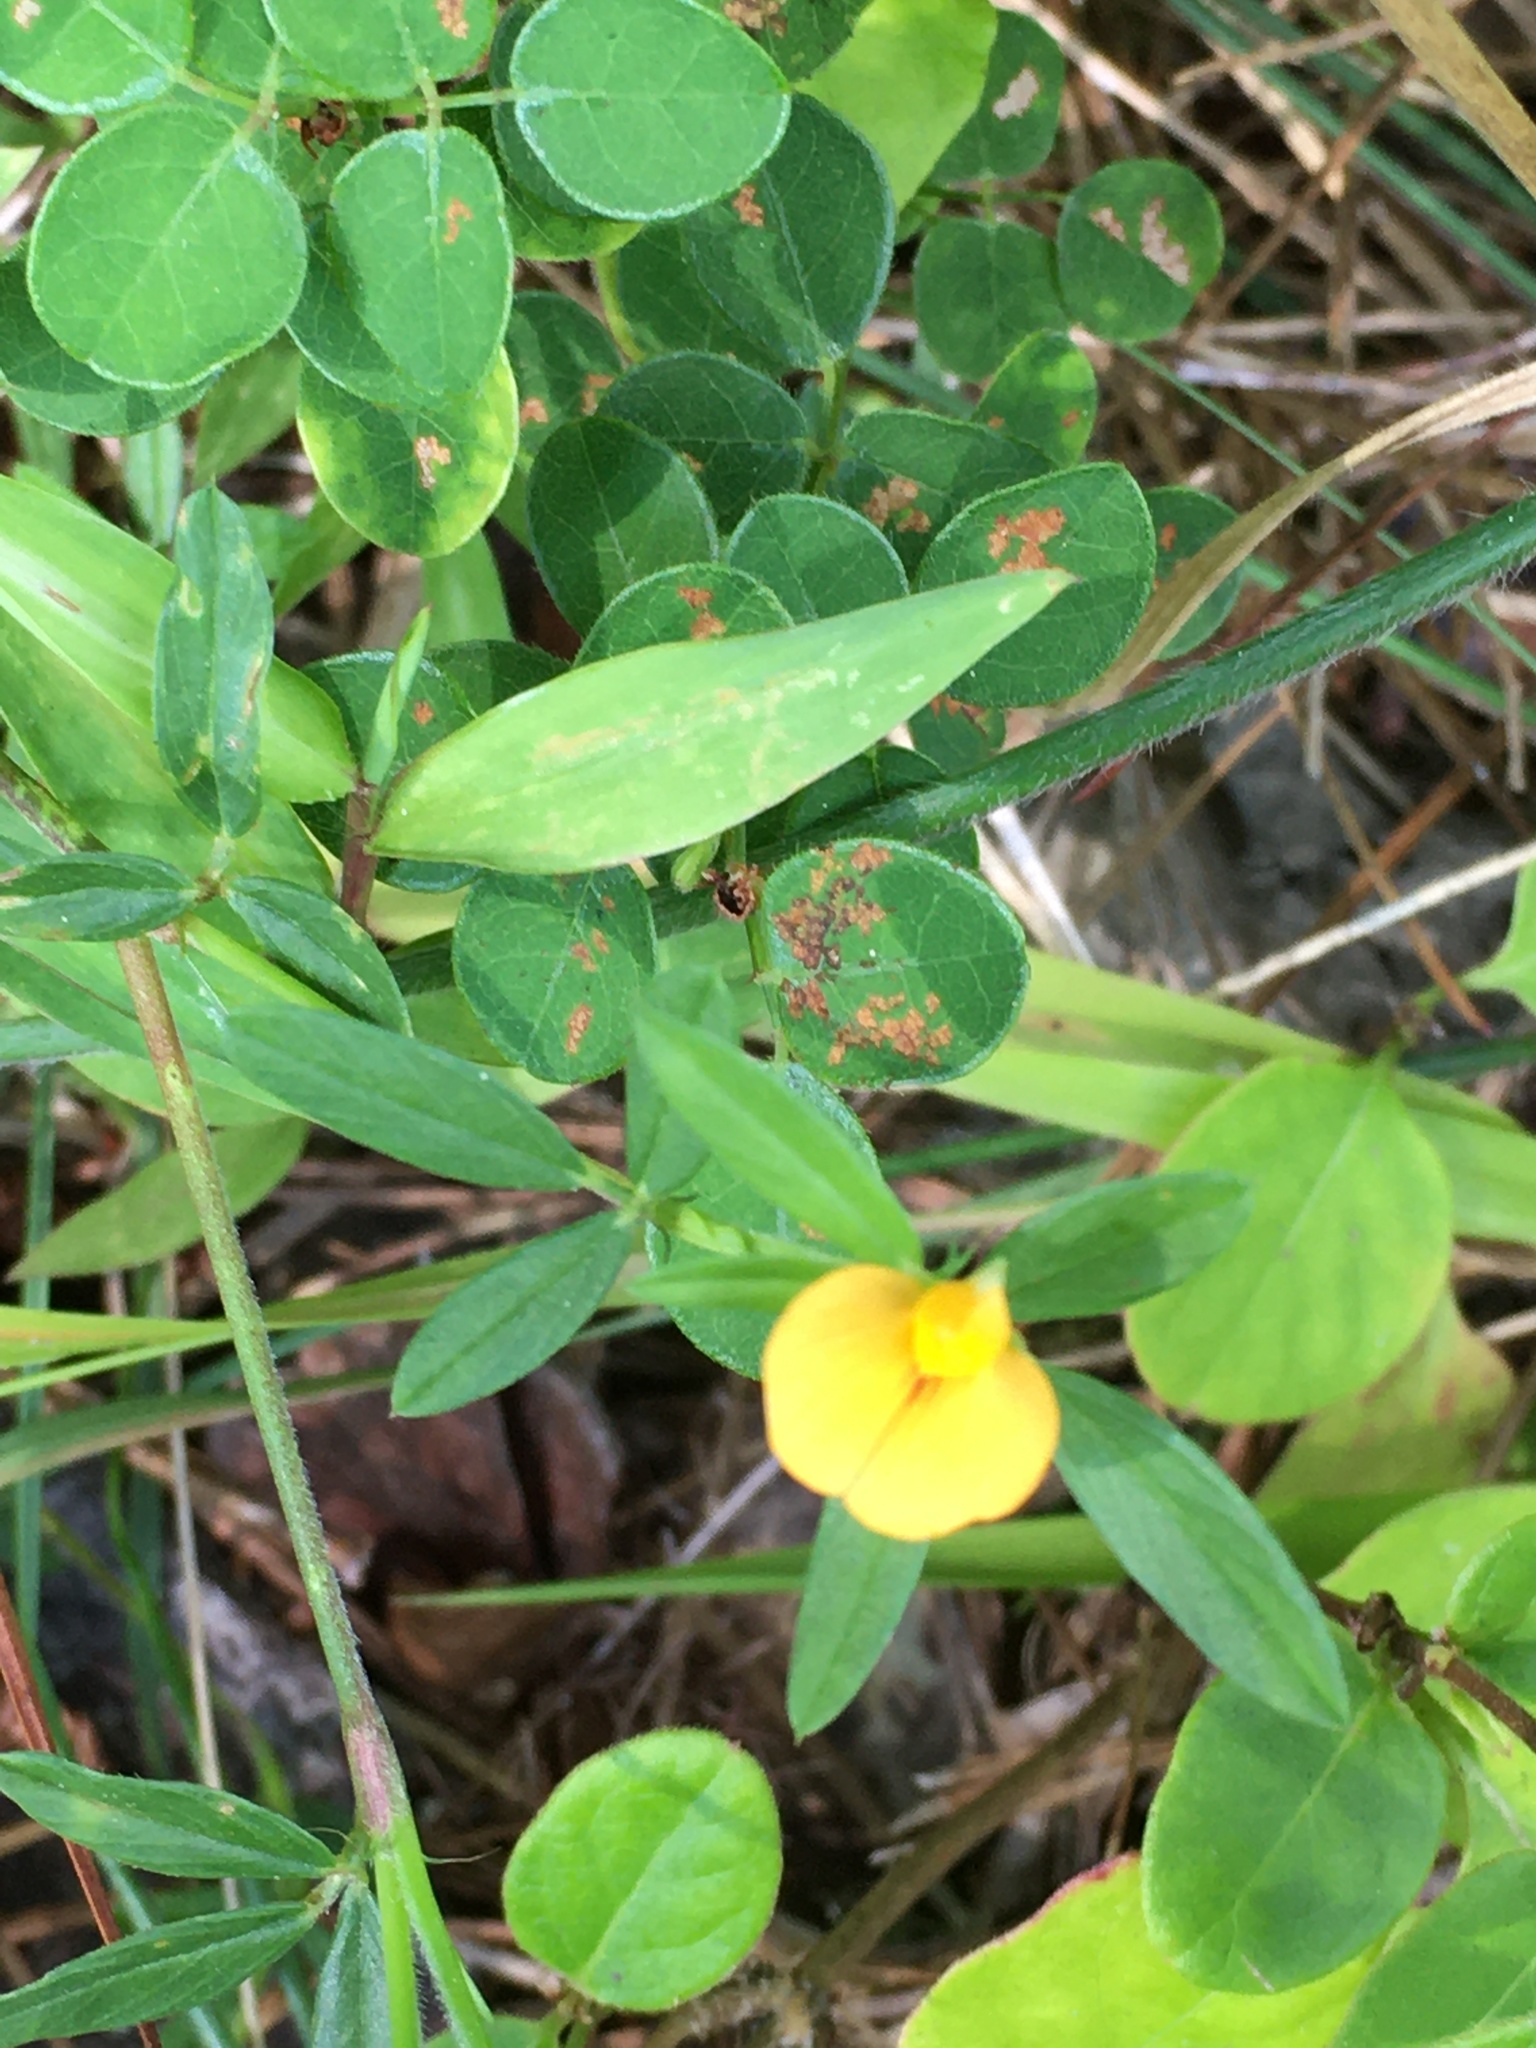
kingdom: Plantae
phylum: Tracheophyta
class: Magnoliopsida
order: Fabales
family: Fabaceae
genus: Stylosanthes
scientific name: Stylosanthes biflora
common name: Two-flower pencil-flower
